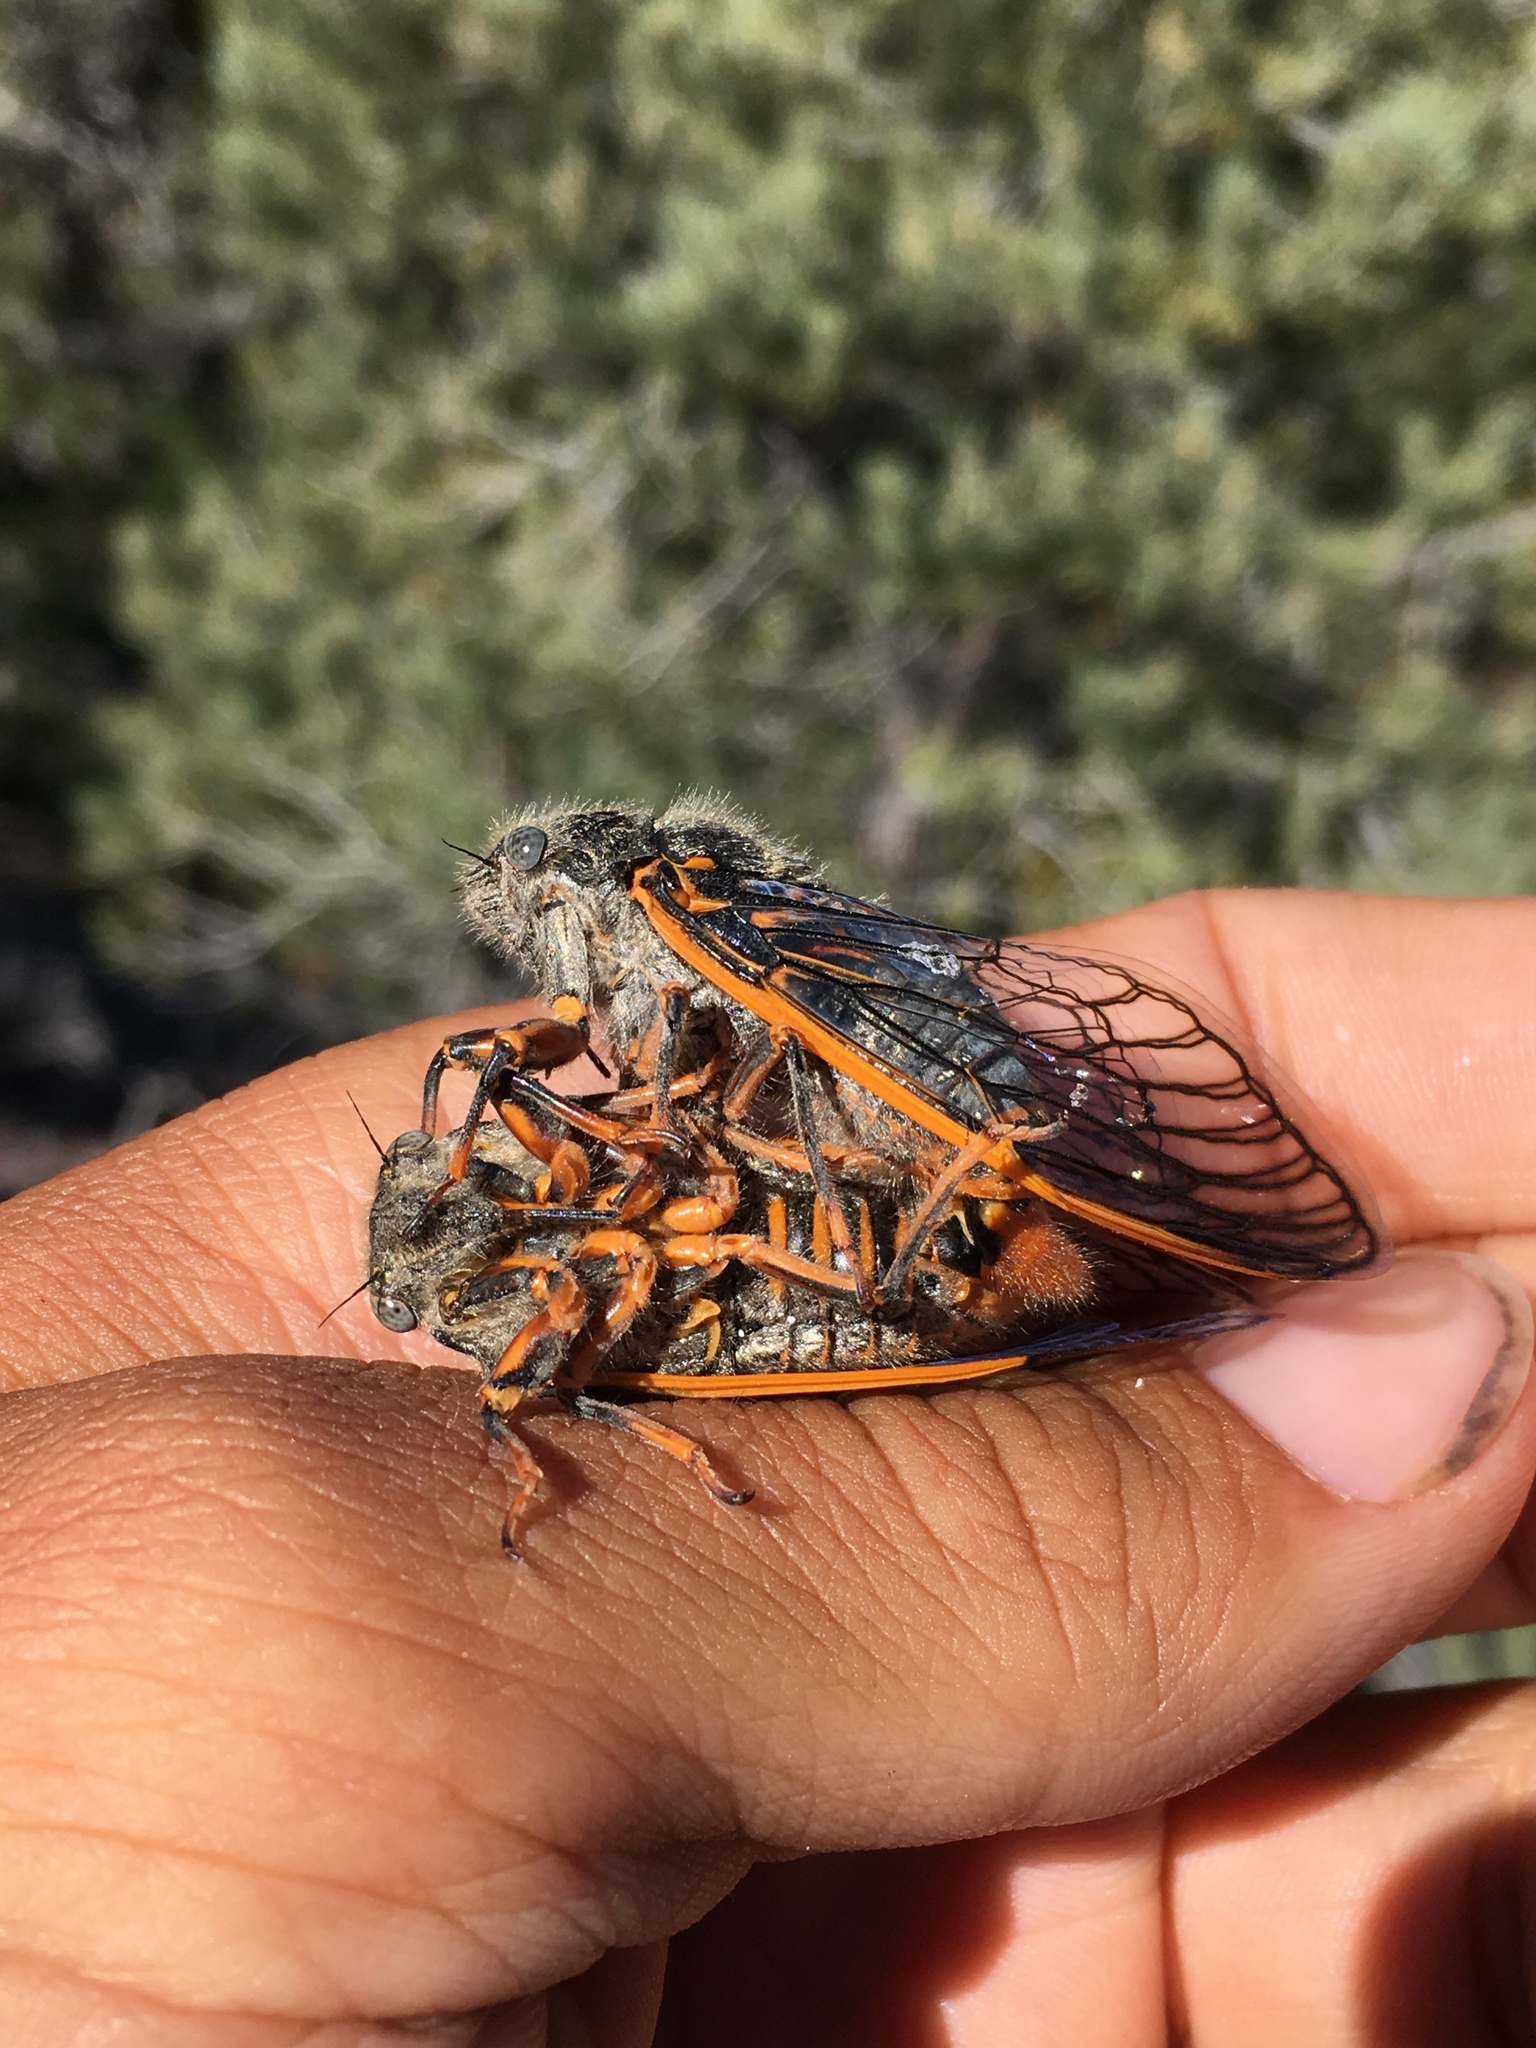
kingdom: Animalia
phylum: Arthropoda
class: Insecta
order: Hemiptera
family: Cicadidae
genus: Okanagana
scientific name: Okanagana magnifica
